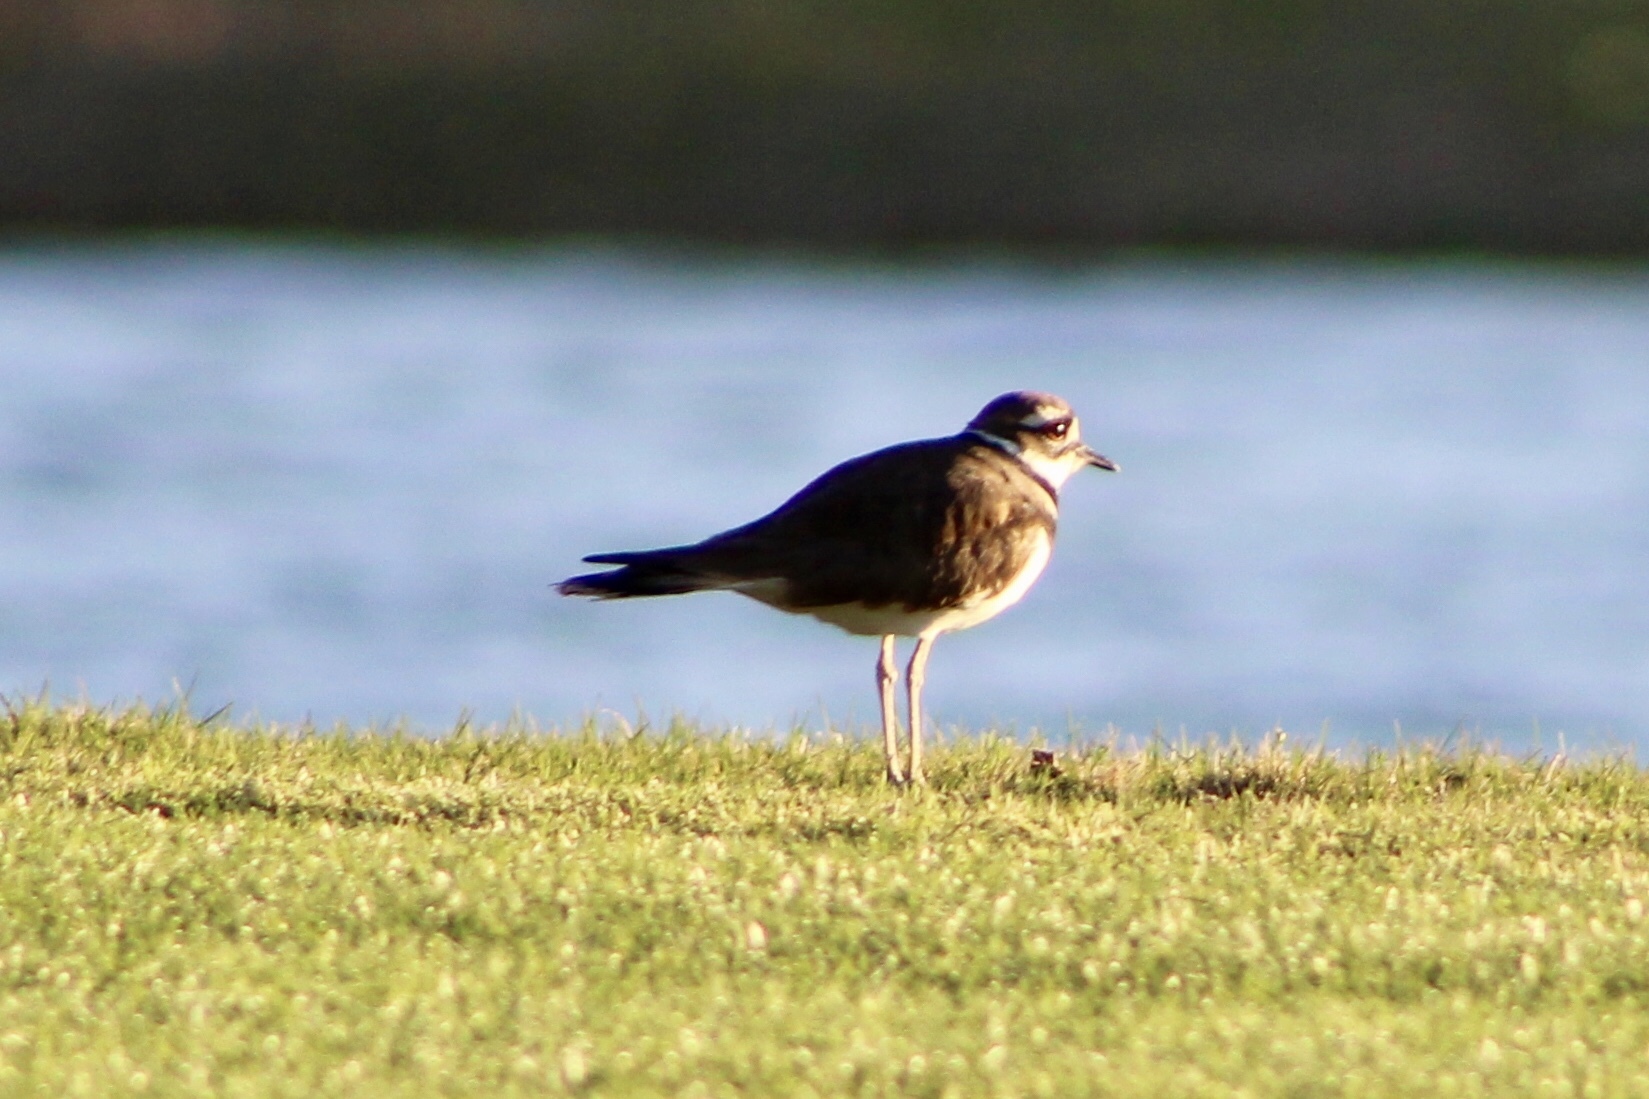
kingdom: Animalia
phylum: Chordata
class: Aves
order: Charadriiformes
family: Charadriidae
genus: Charadrius
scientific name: Charadrius vociferus
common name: Killdeer
